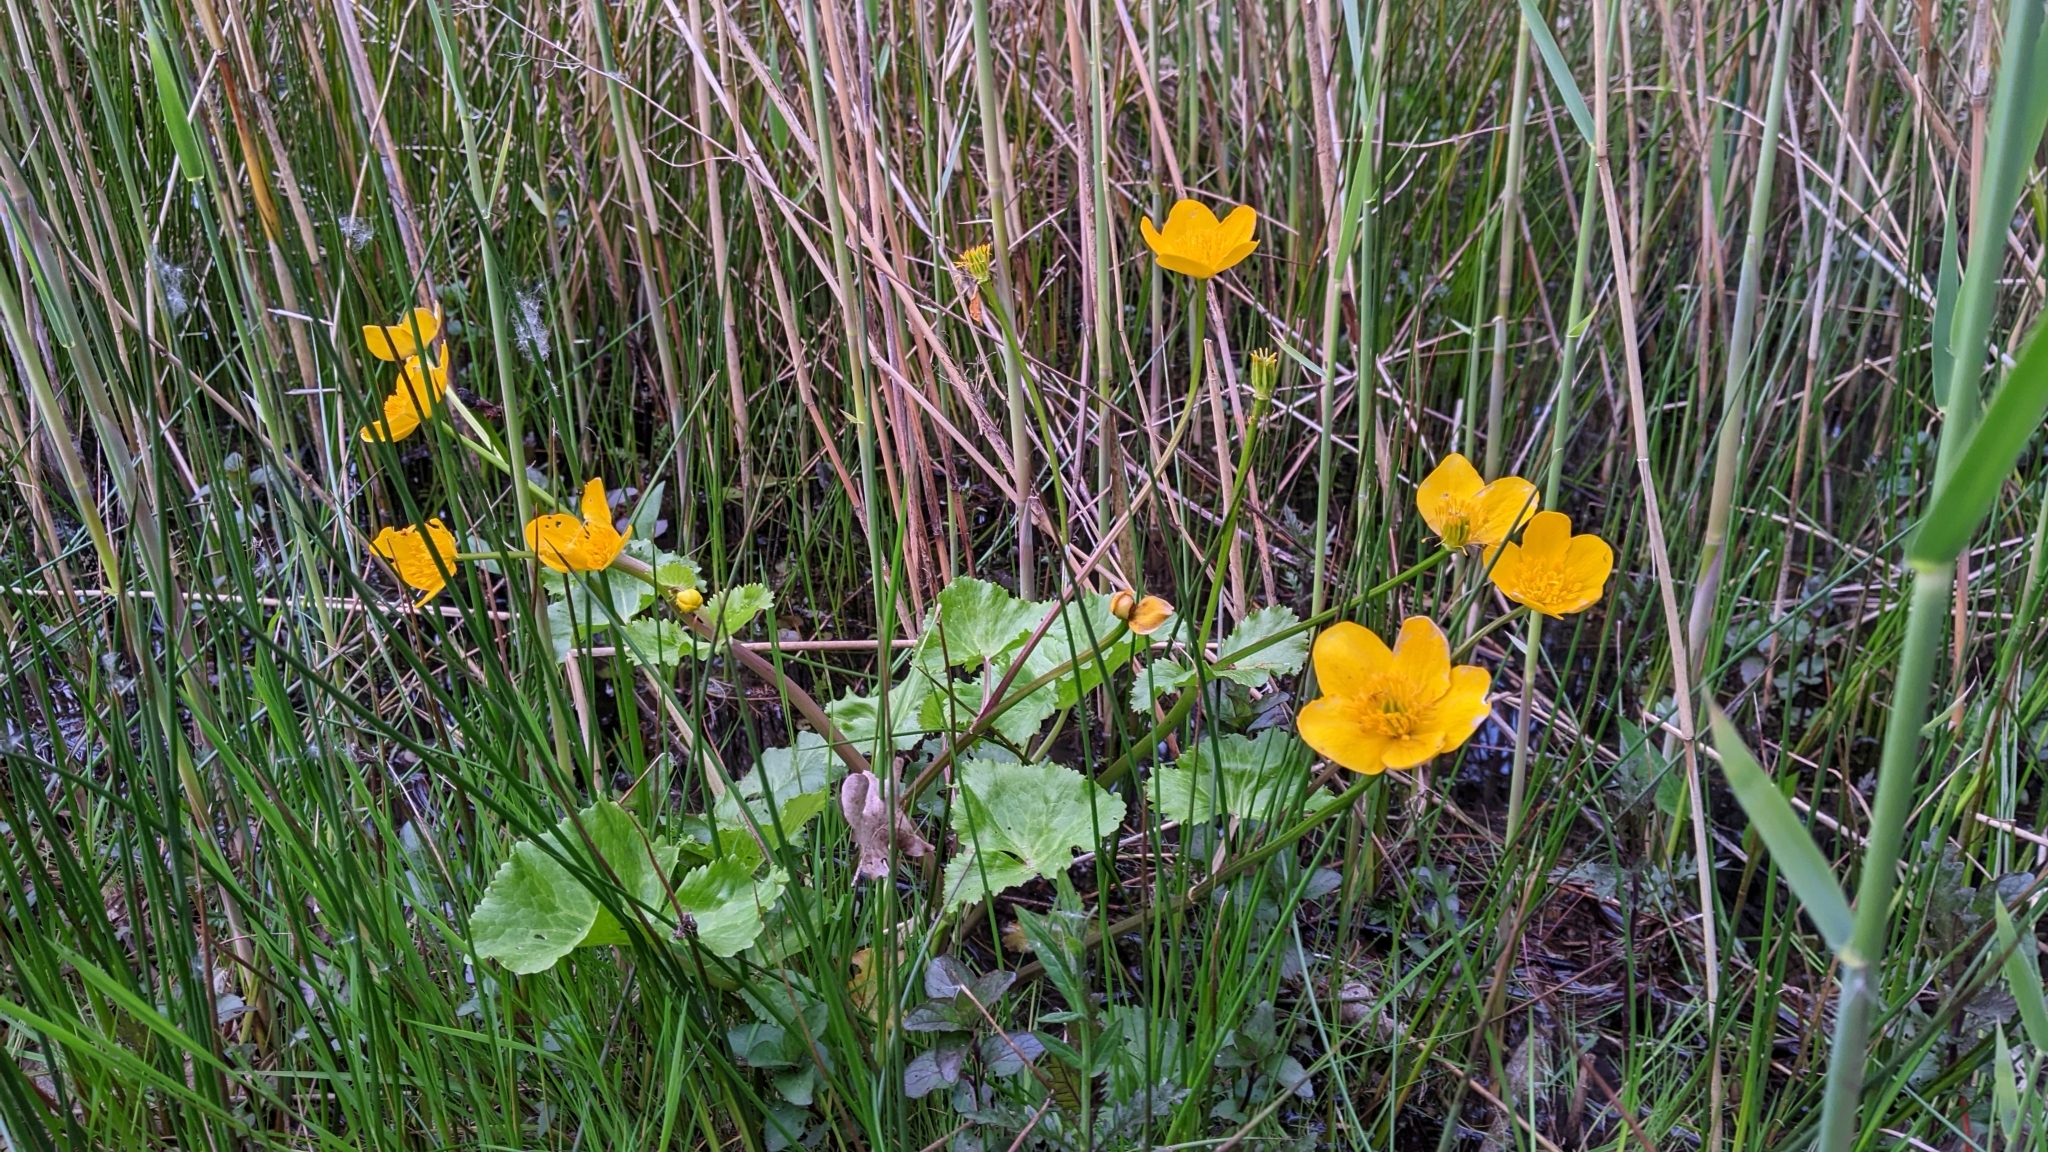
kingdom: Plantae
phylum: Tracheophyta
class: Magnoliopsida
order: Ranunculales
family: Ranunculaceae
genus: Caltha
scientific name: Caltha palustris
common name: Marsh marigold
